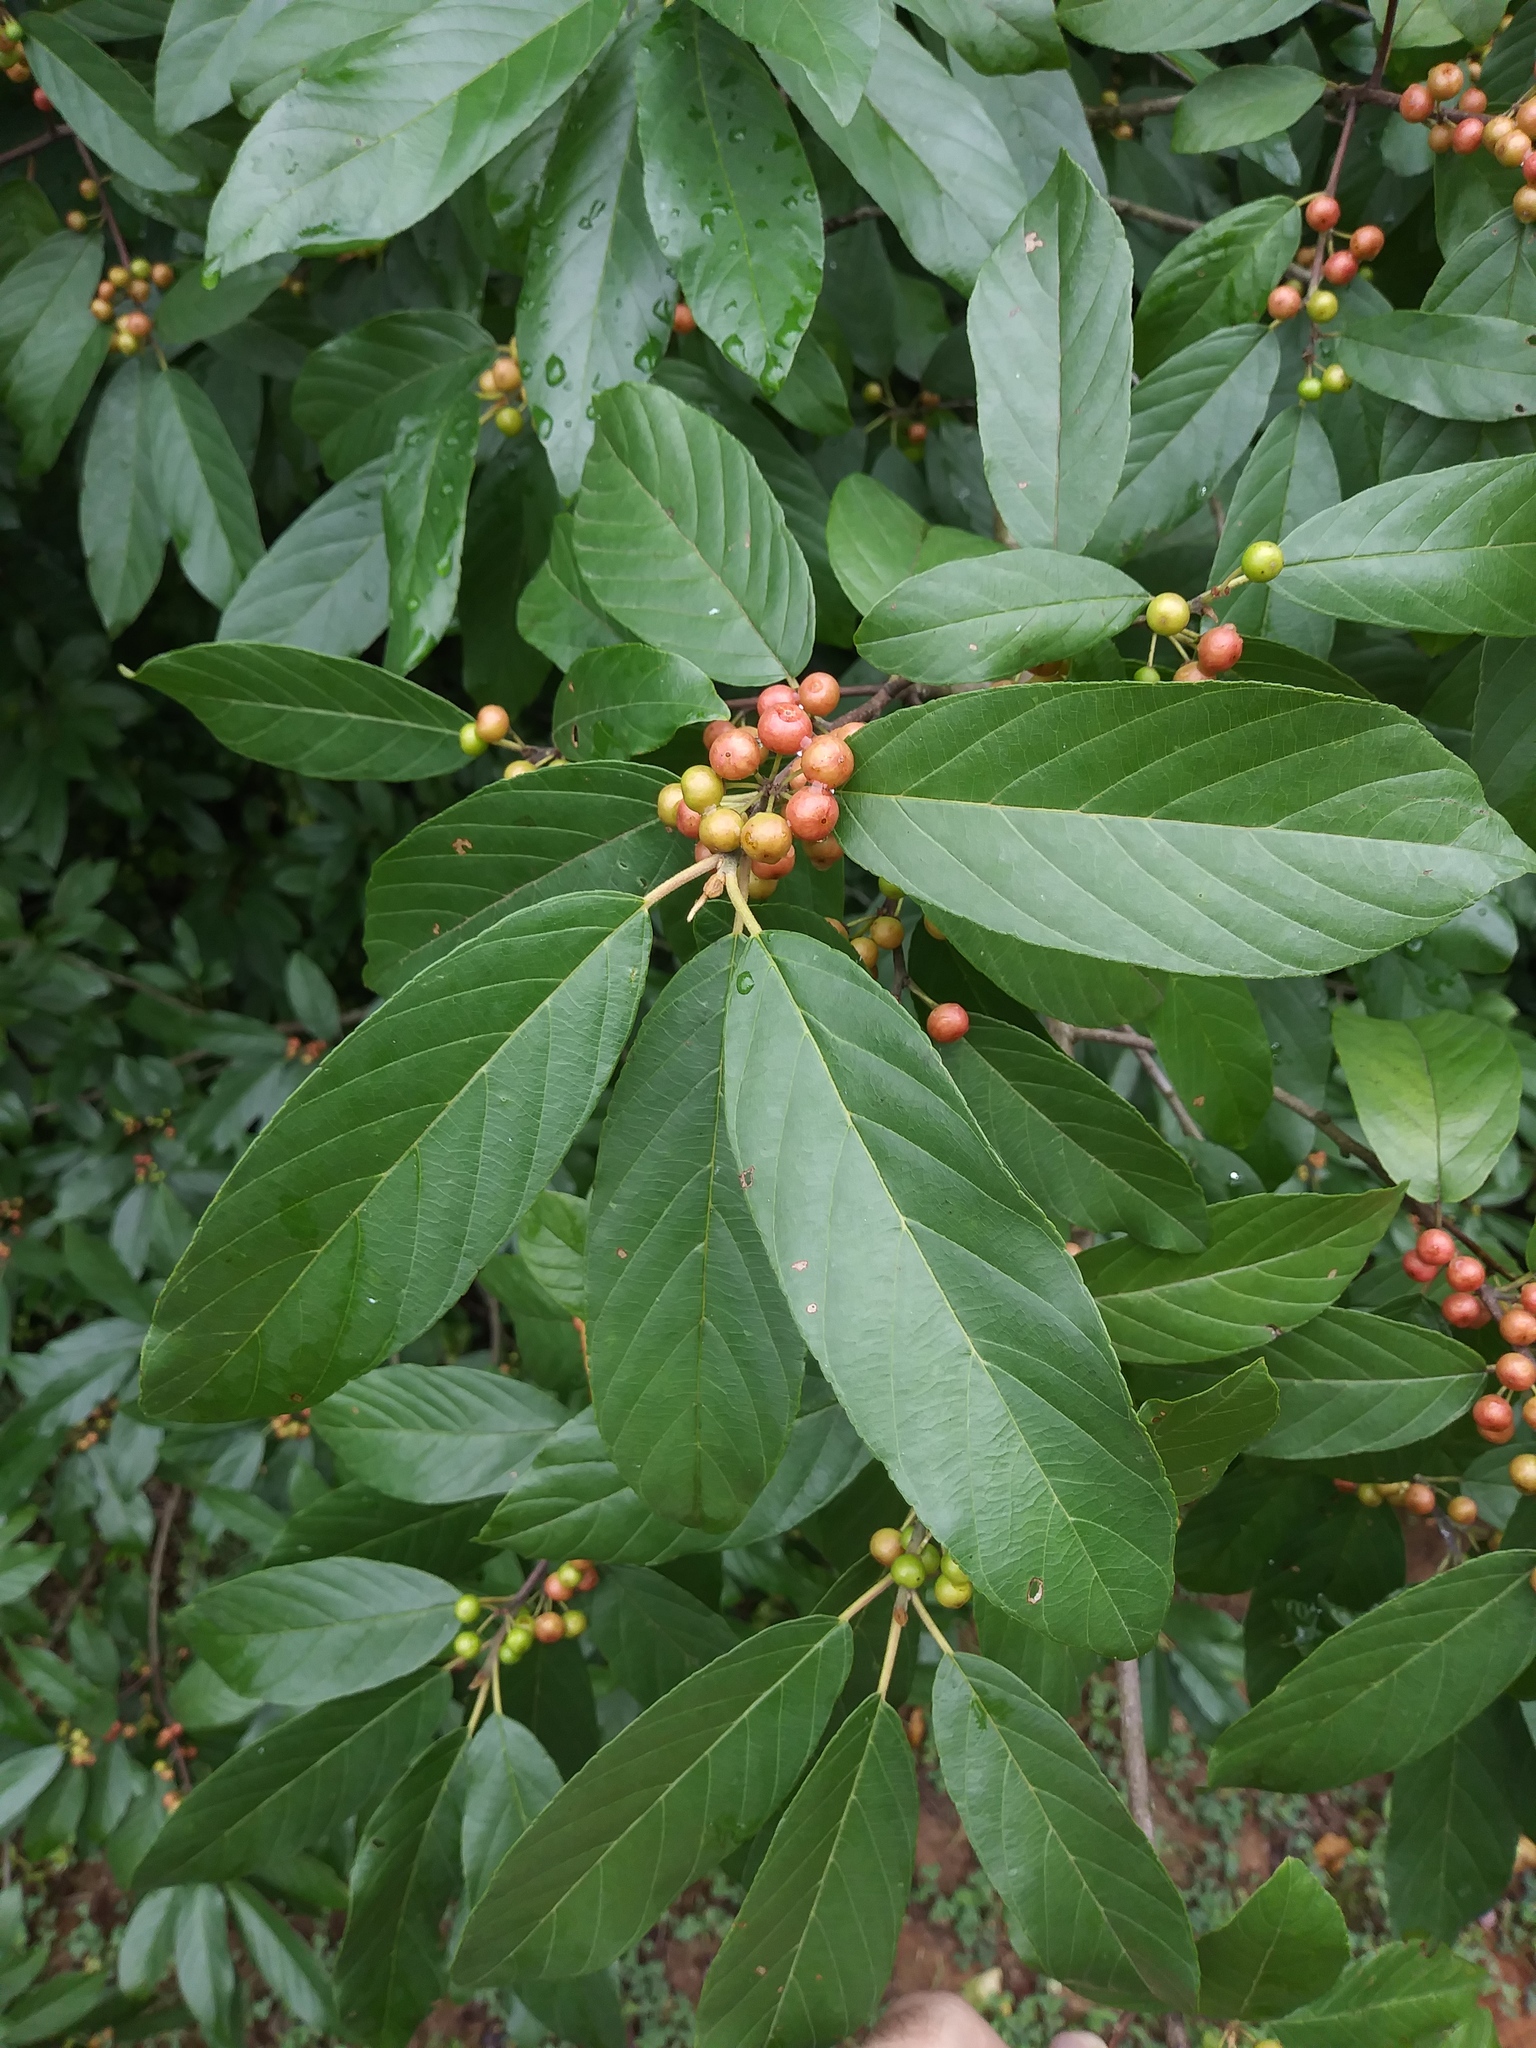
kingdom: Plantae
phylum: Tracheophyta
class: Magnoliopsida
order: Rosales
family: Rhamnaceae
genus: Frangula
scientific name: Frangula caroliniana
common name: Carolina buckthorn
